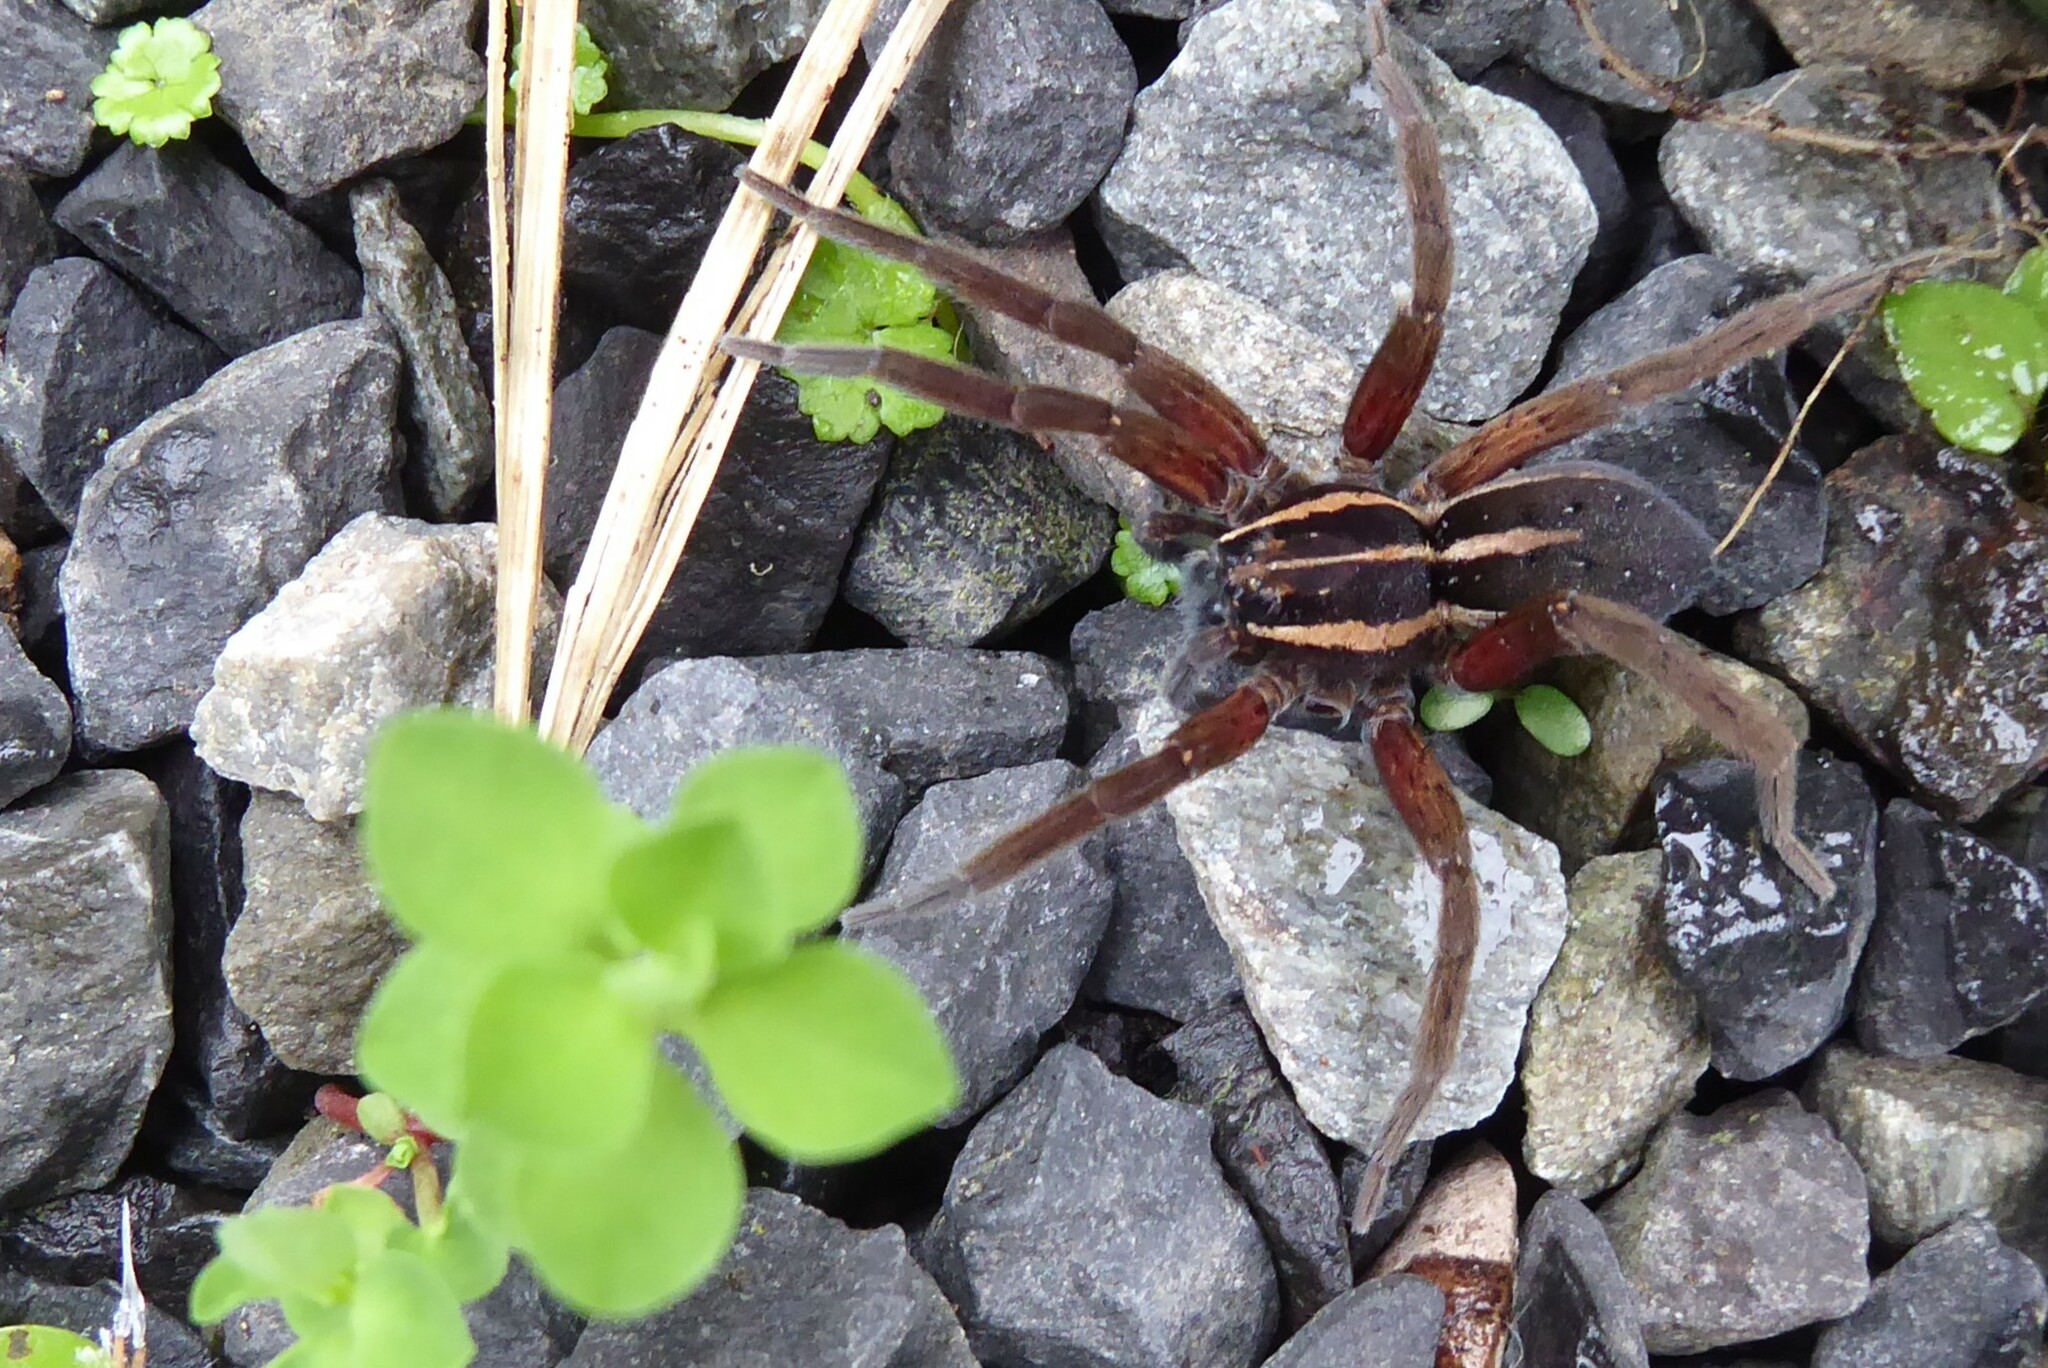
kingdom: Animalia
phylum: Arthropoda
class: Arachnida
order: Araneae
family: Pisauridae
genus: Dolomedes
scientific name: Dolomedes minor
